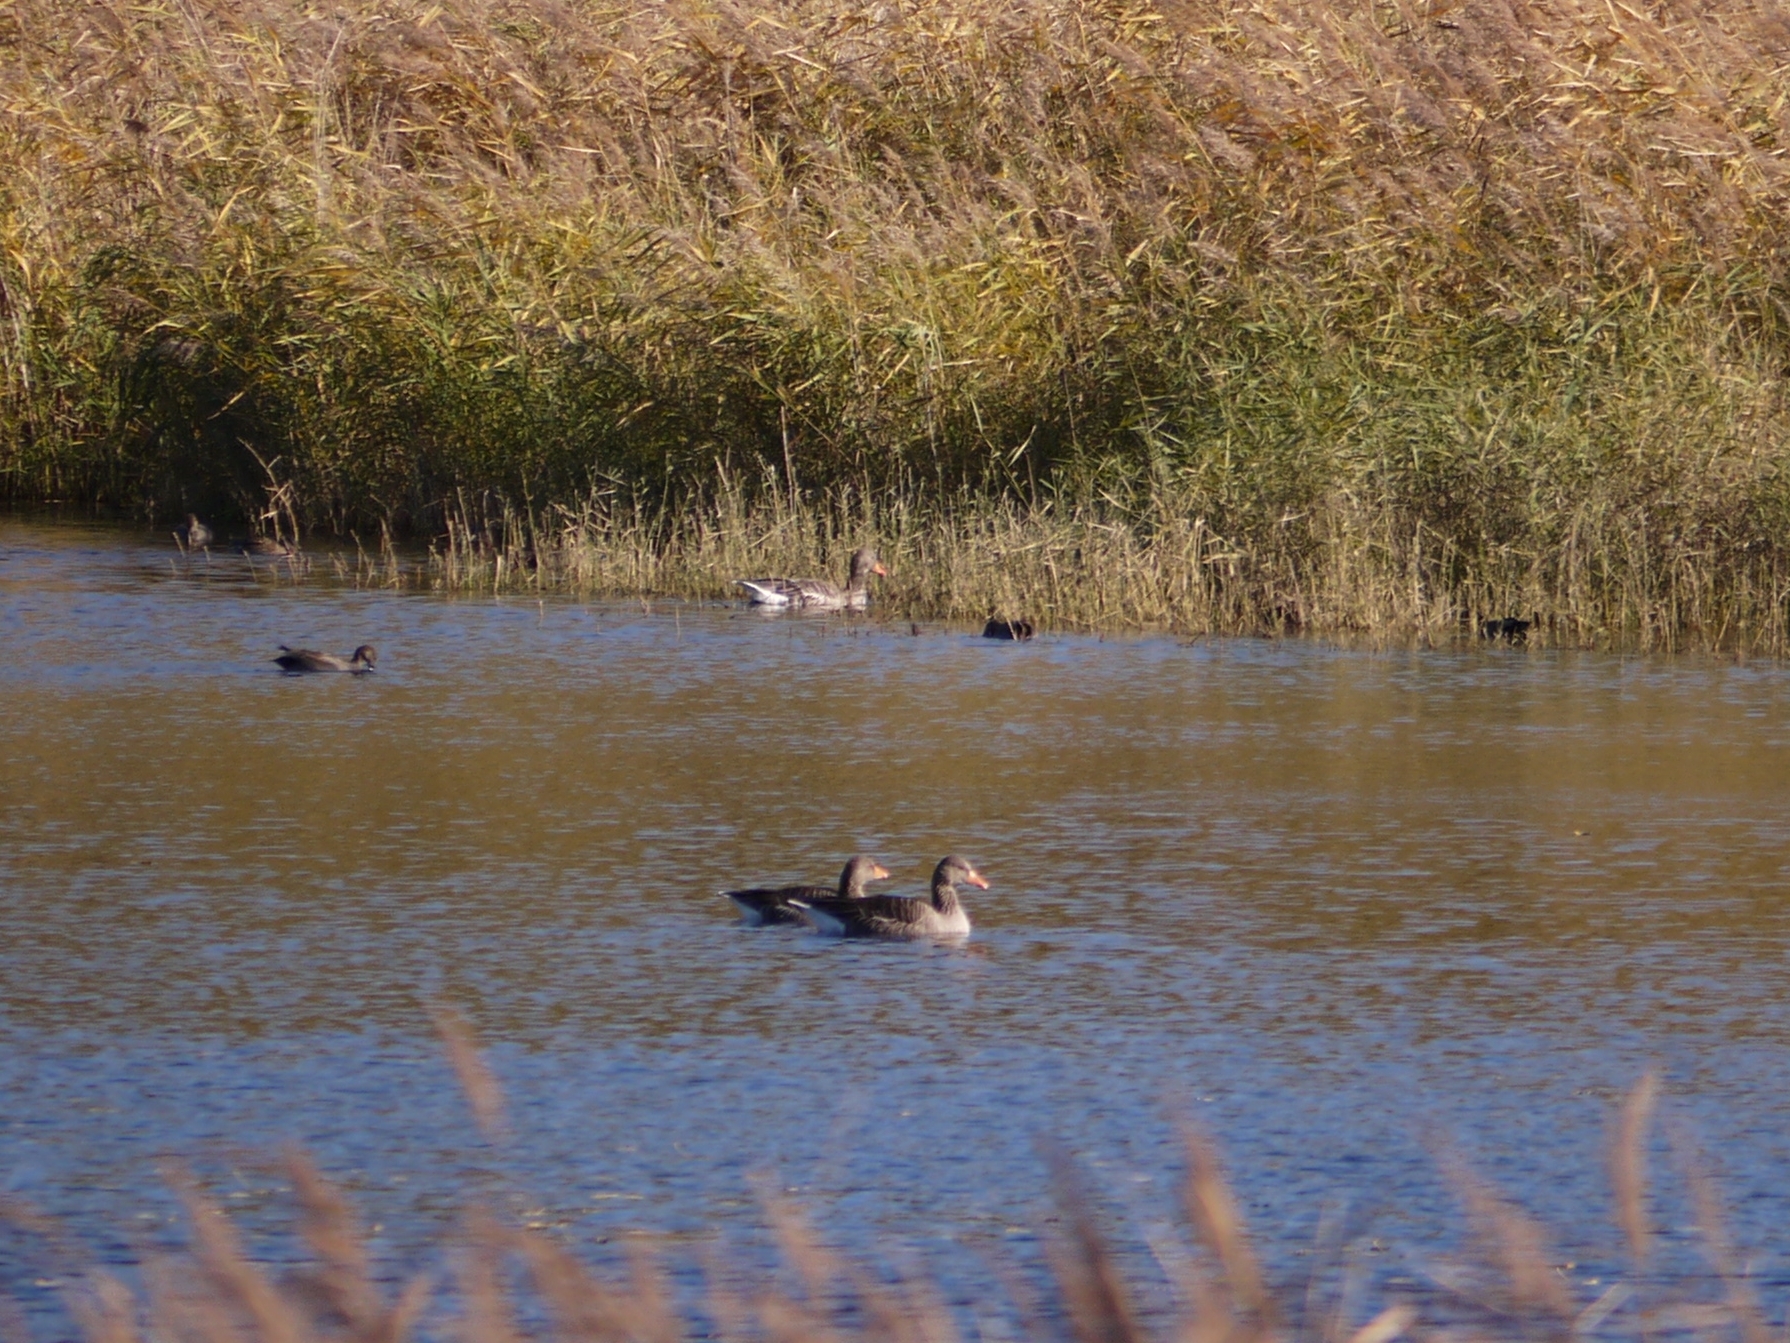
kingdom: Animalia
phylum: Chordata
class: Aves
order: Anseriformes
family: Anatidae
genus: Anser
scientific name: Anser anser
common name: Greylag goose
